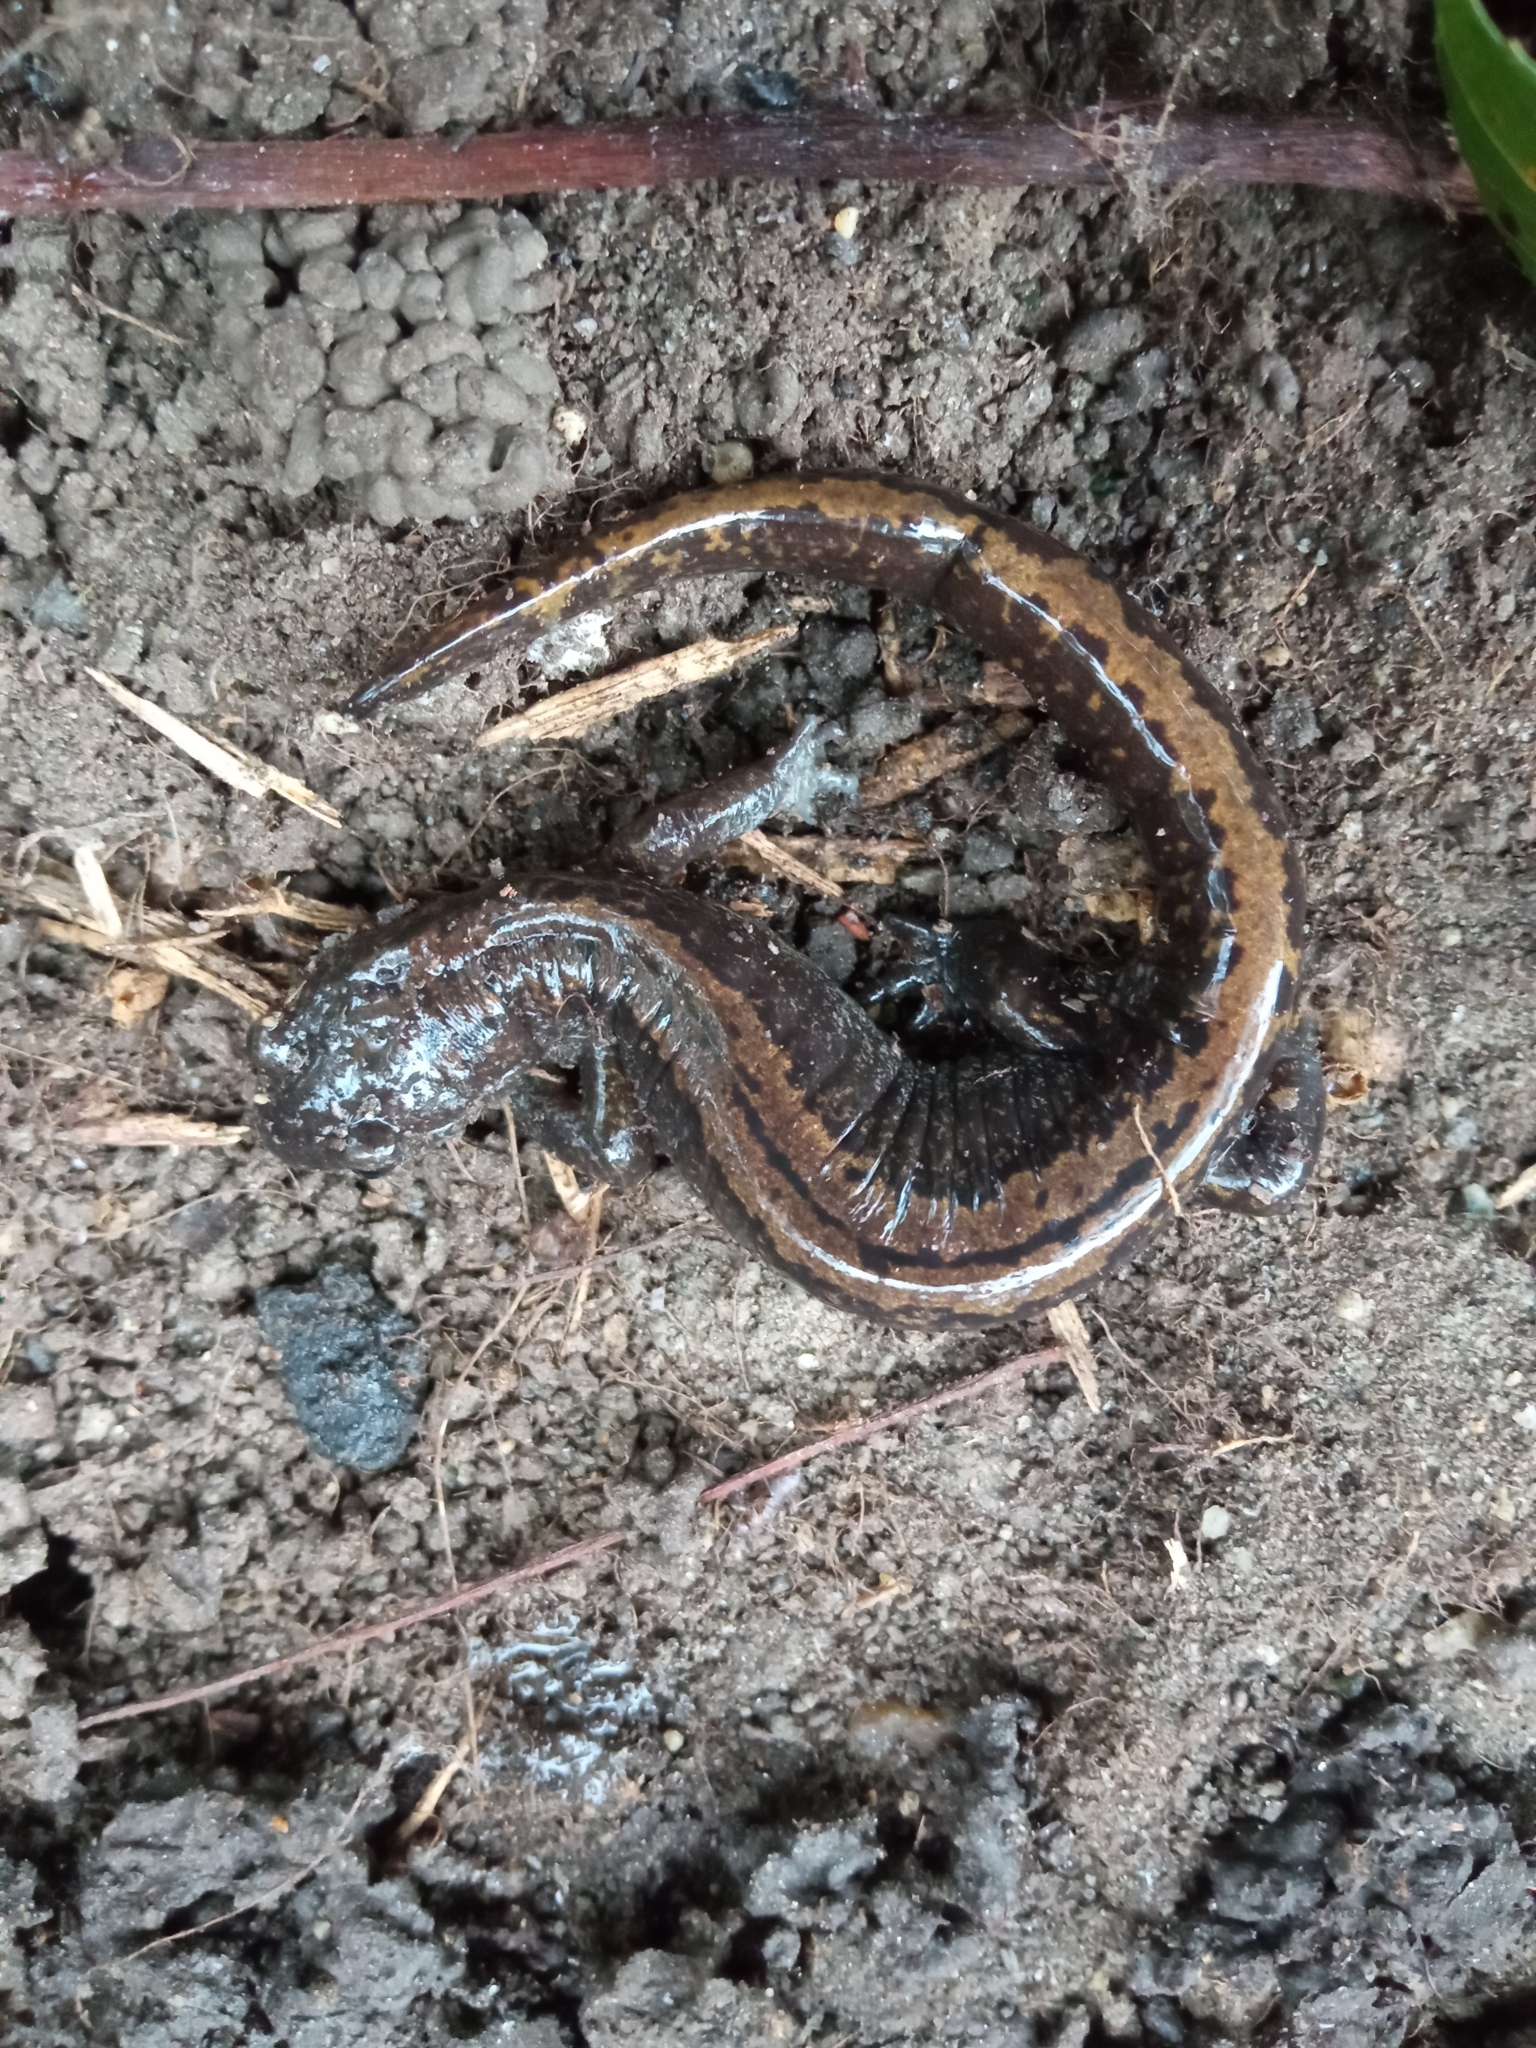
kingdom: Animalia
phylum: Chordata
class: Amphibia
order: Caudata
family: Hynobiidae
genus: Salamandrella
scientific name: Salamandrella keyserlingii
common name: Dybowski's salamander
